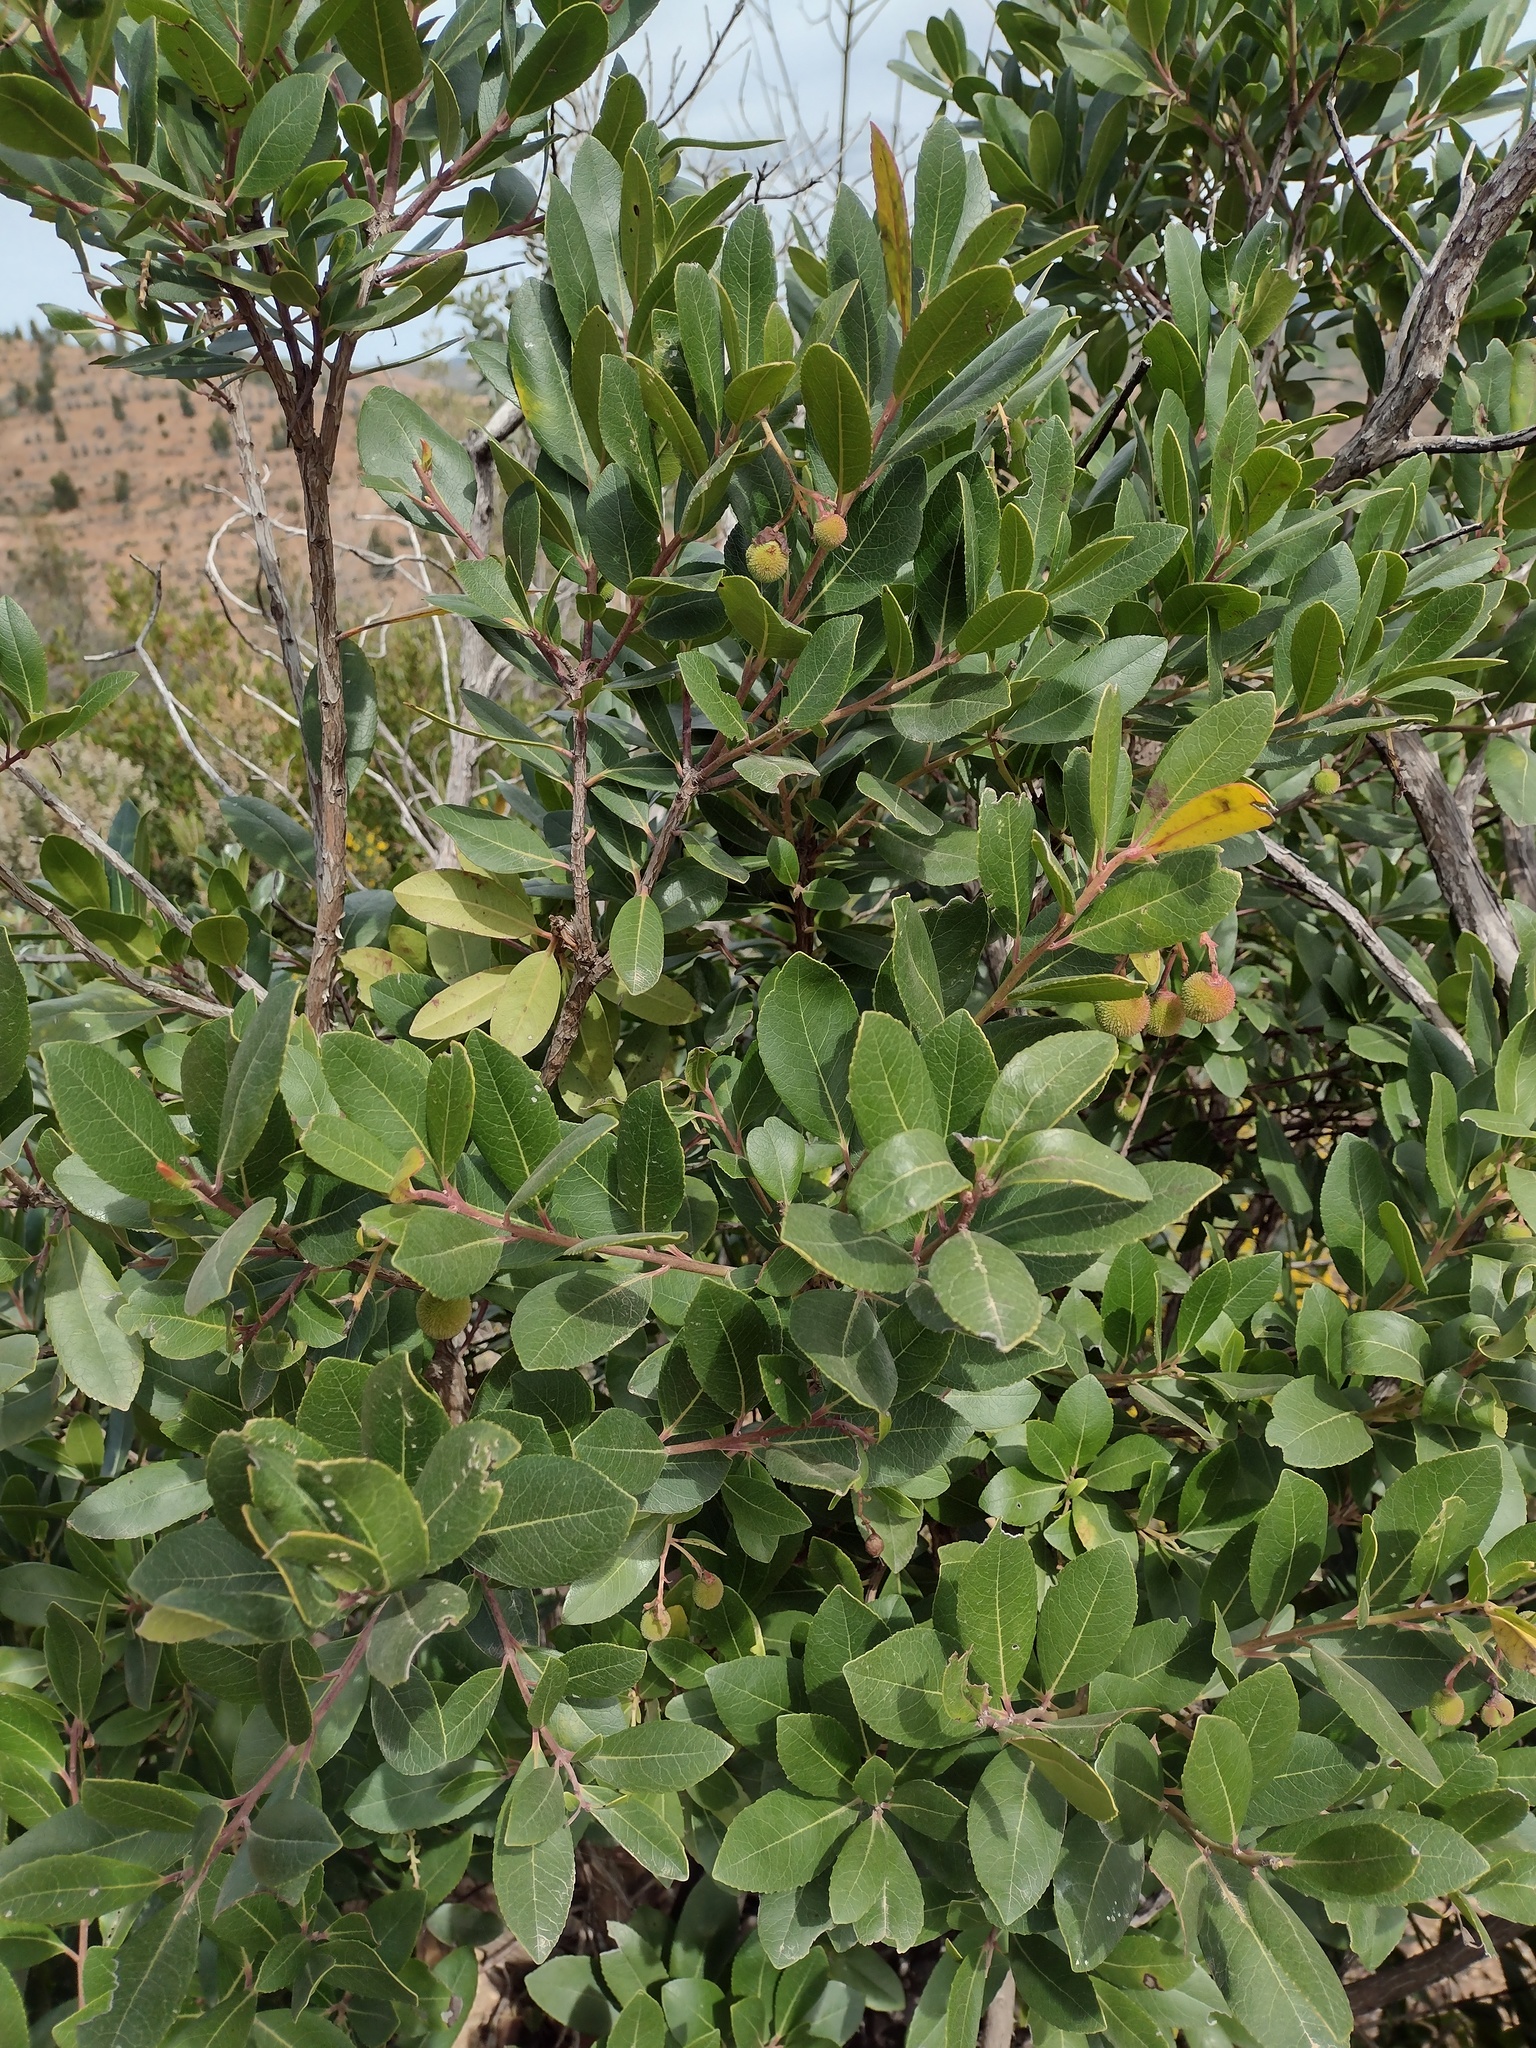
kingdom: Plantae
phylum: Tracheophyta
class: Magnoliopsida
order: Ericales
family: Ericaceae
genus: Arbutus
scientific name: Arbutus unedo
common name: Strawberry-tree
